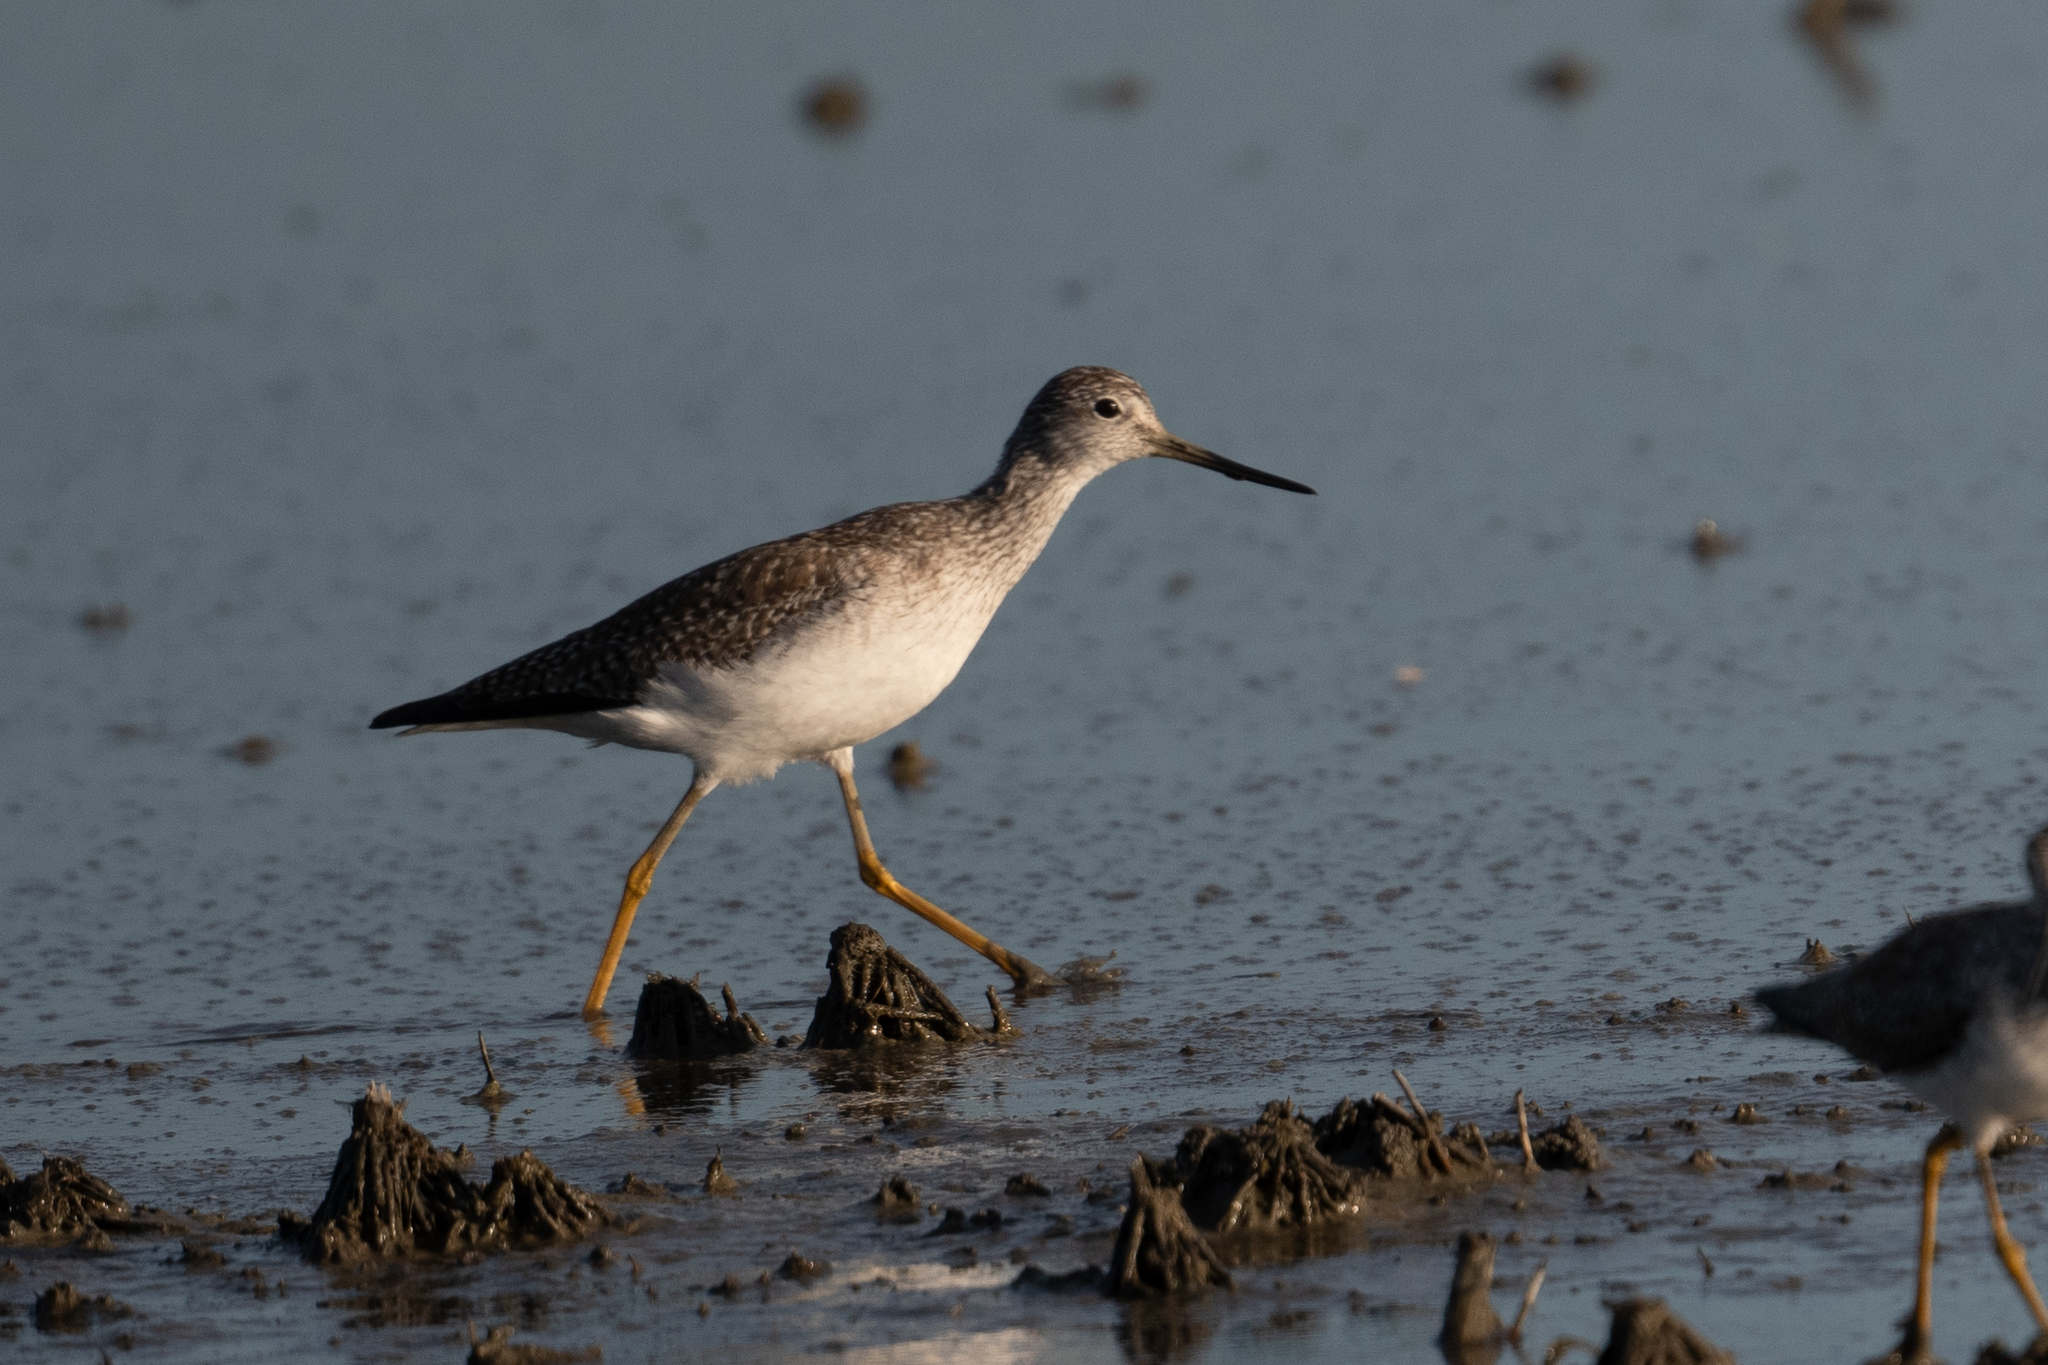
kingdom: Animalia
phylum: Chordata
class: Aves
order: Charadriiformes
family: Scolopacidae
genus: Tringa
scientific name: Tringa melanoleuca
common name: Greater yellowlegs
